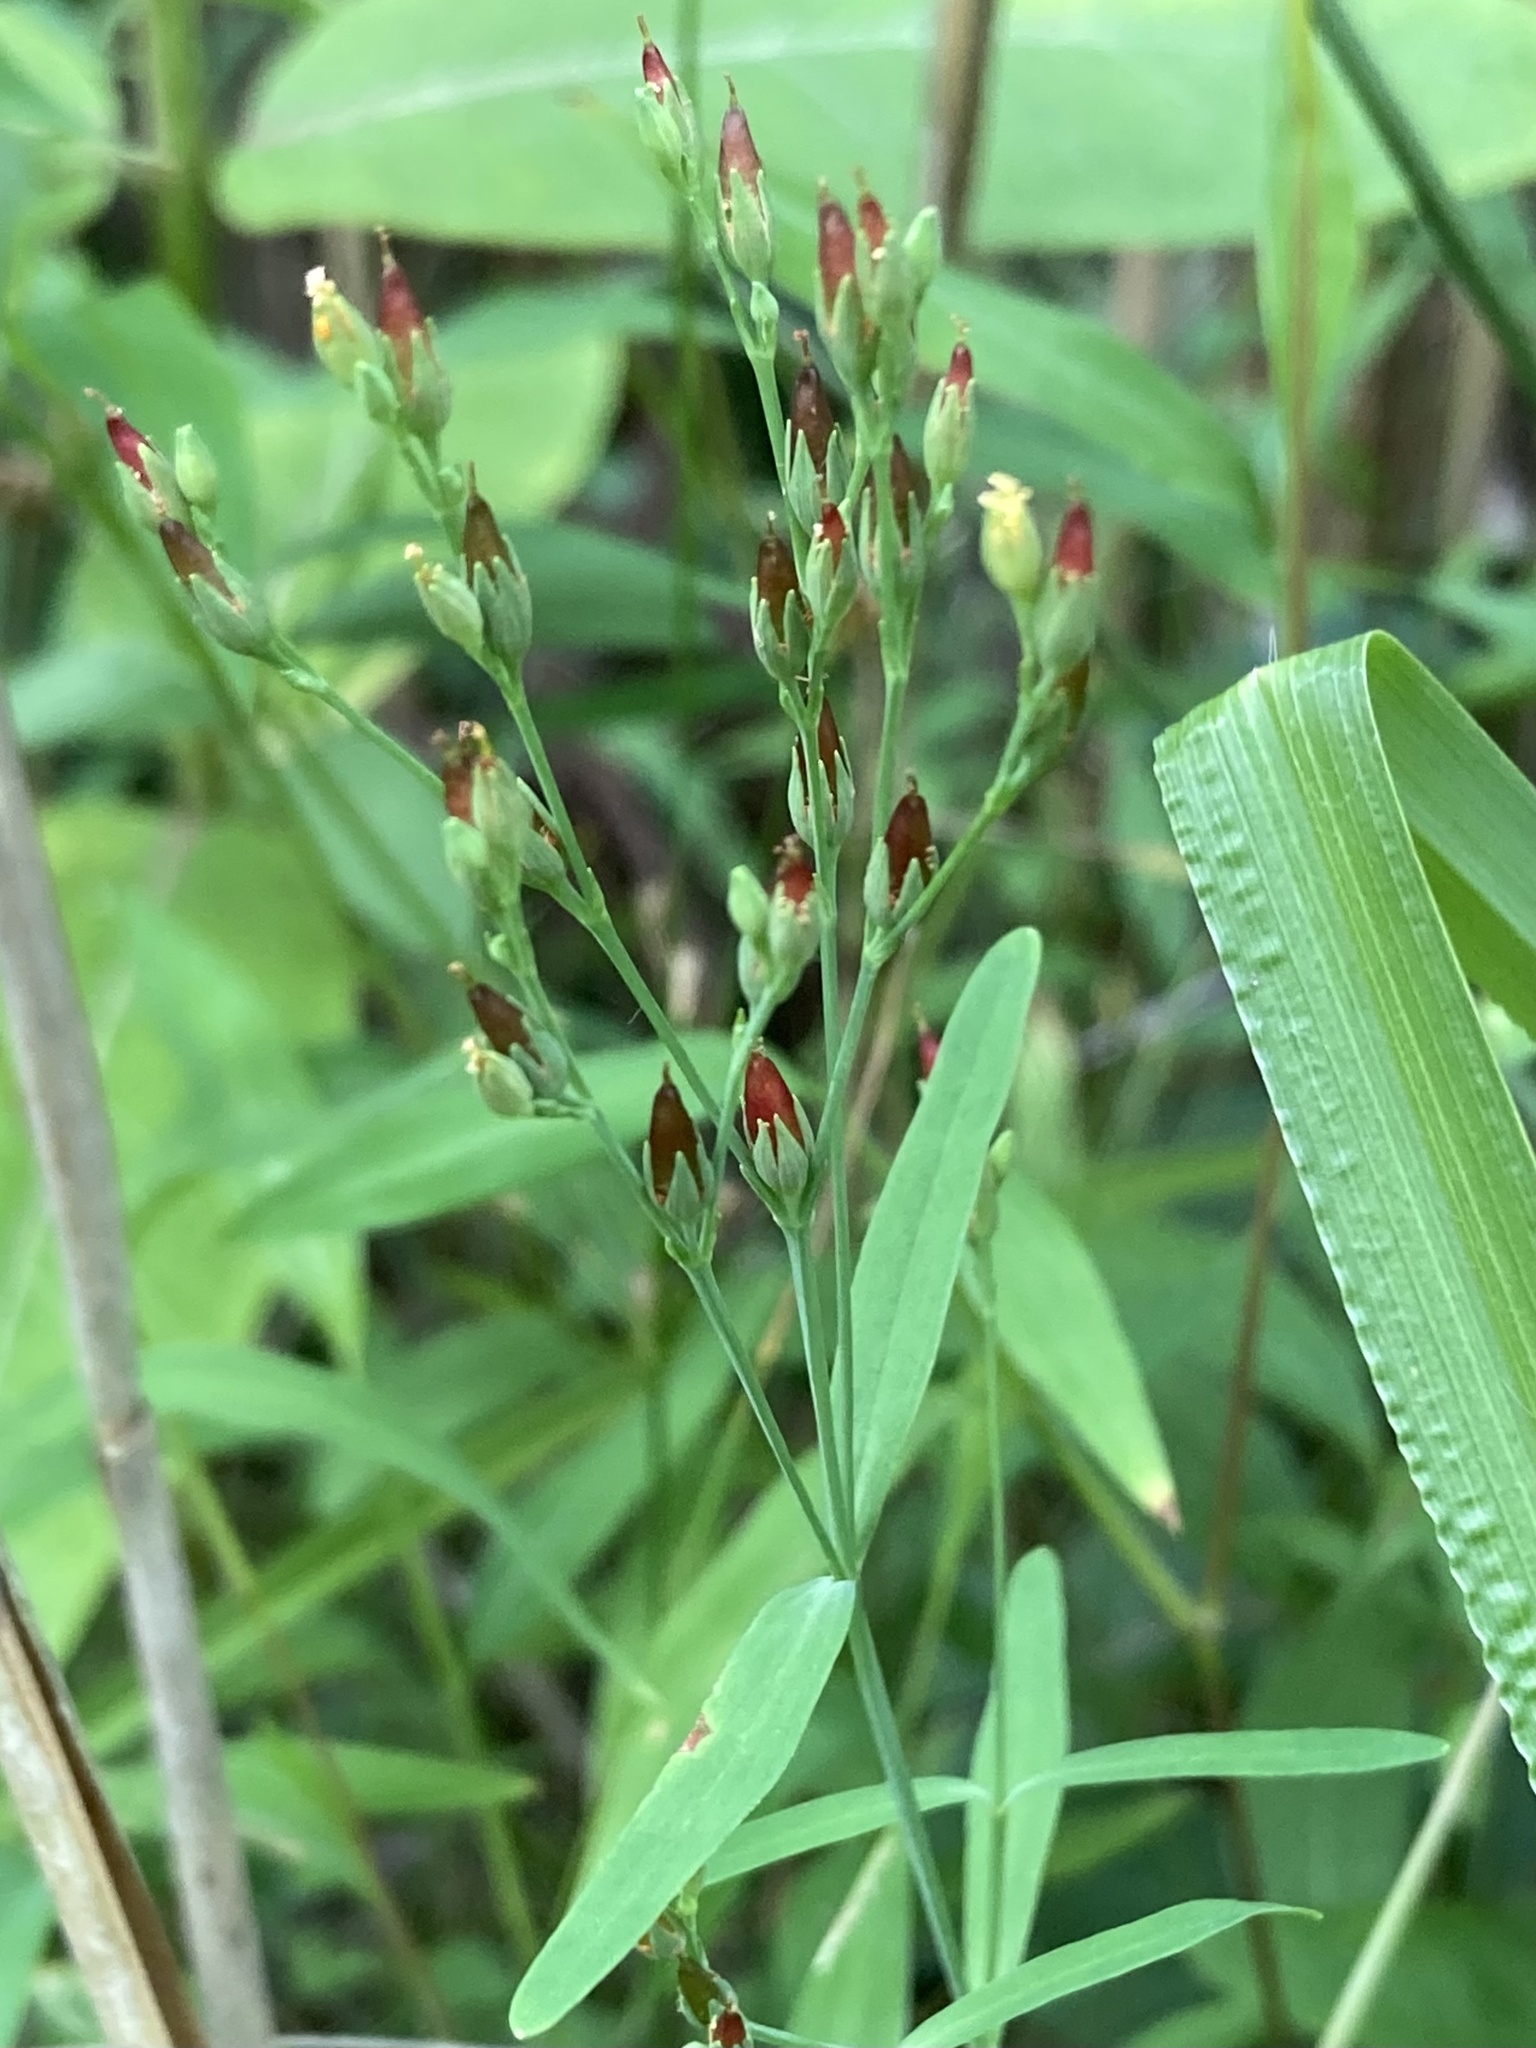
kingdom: Plantae
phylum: Tracheophyta
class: Magnoliopsida
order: Malpighiales
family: Hypericaceae
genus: Hypericum
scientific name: Hypericum canadense
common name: Irish st. john's-wort
